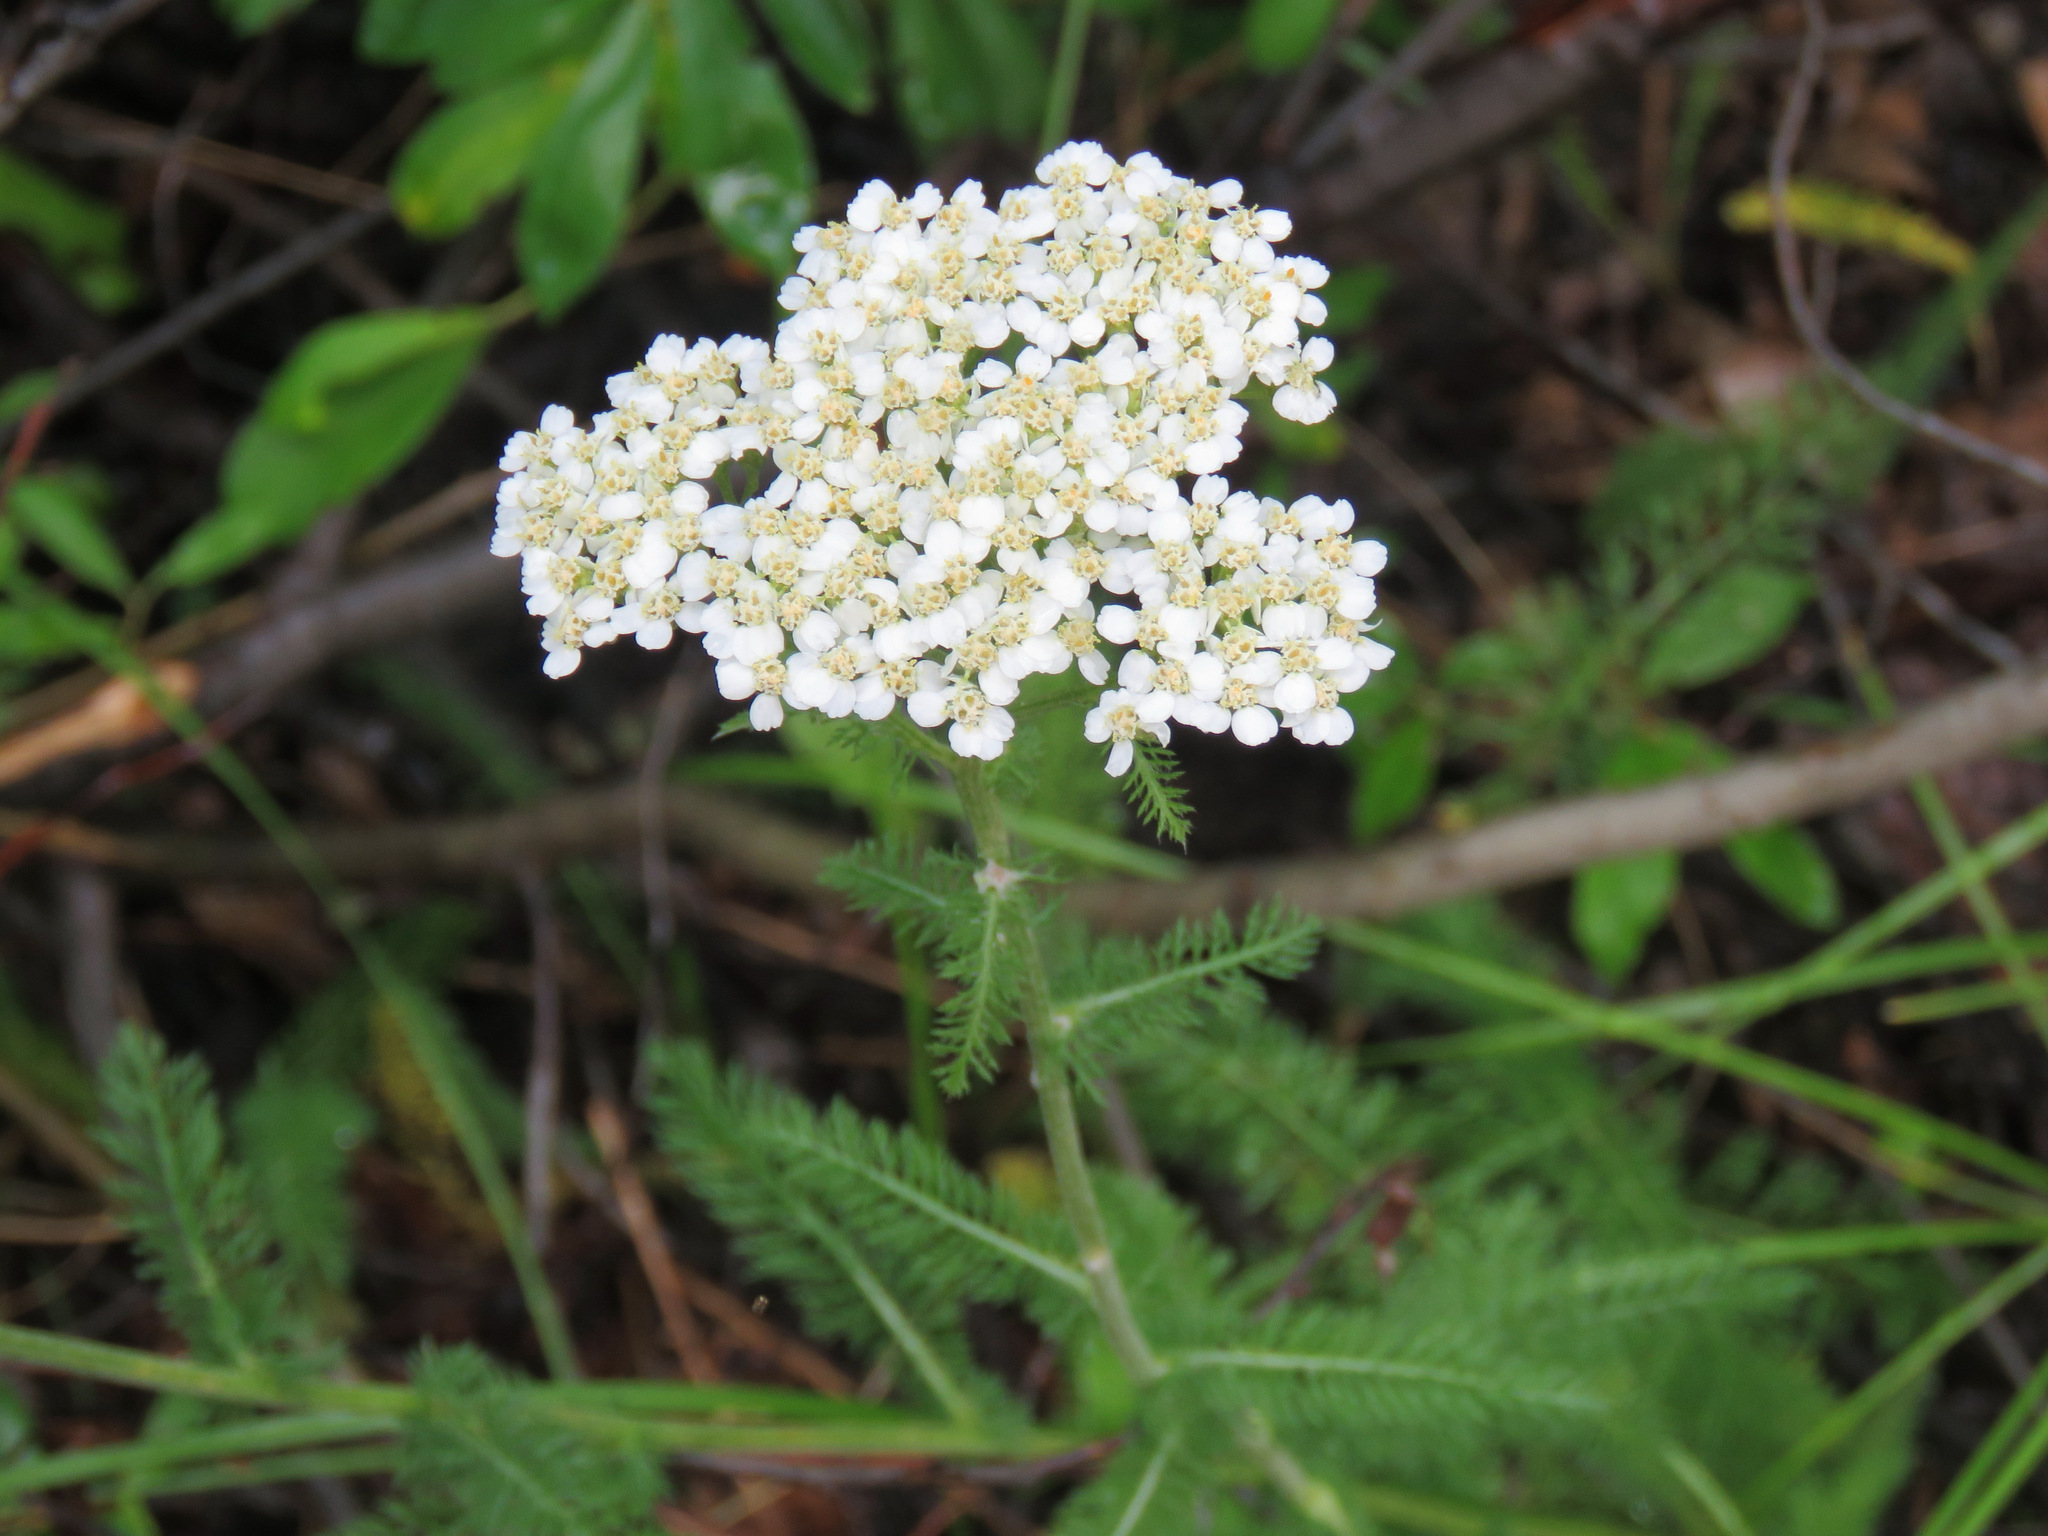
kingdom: Plantae
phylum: Tracheophyta
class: Magnoliopsida
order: Asterales
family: Asteraceae
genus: Achillea
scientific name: Achillea millefolium
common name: Yarrow
